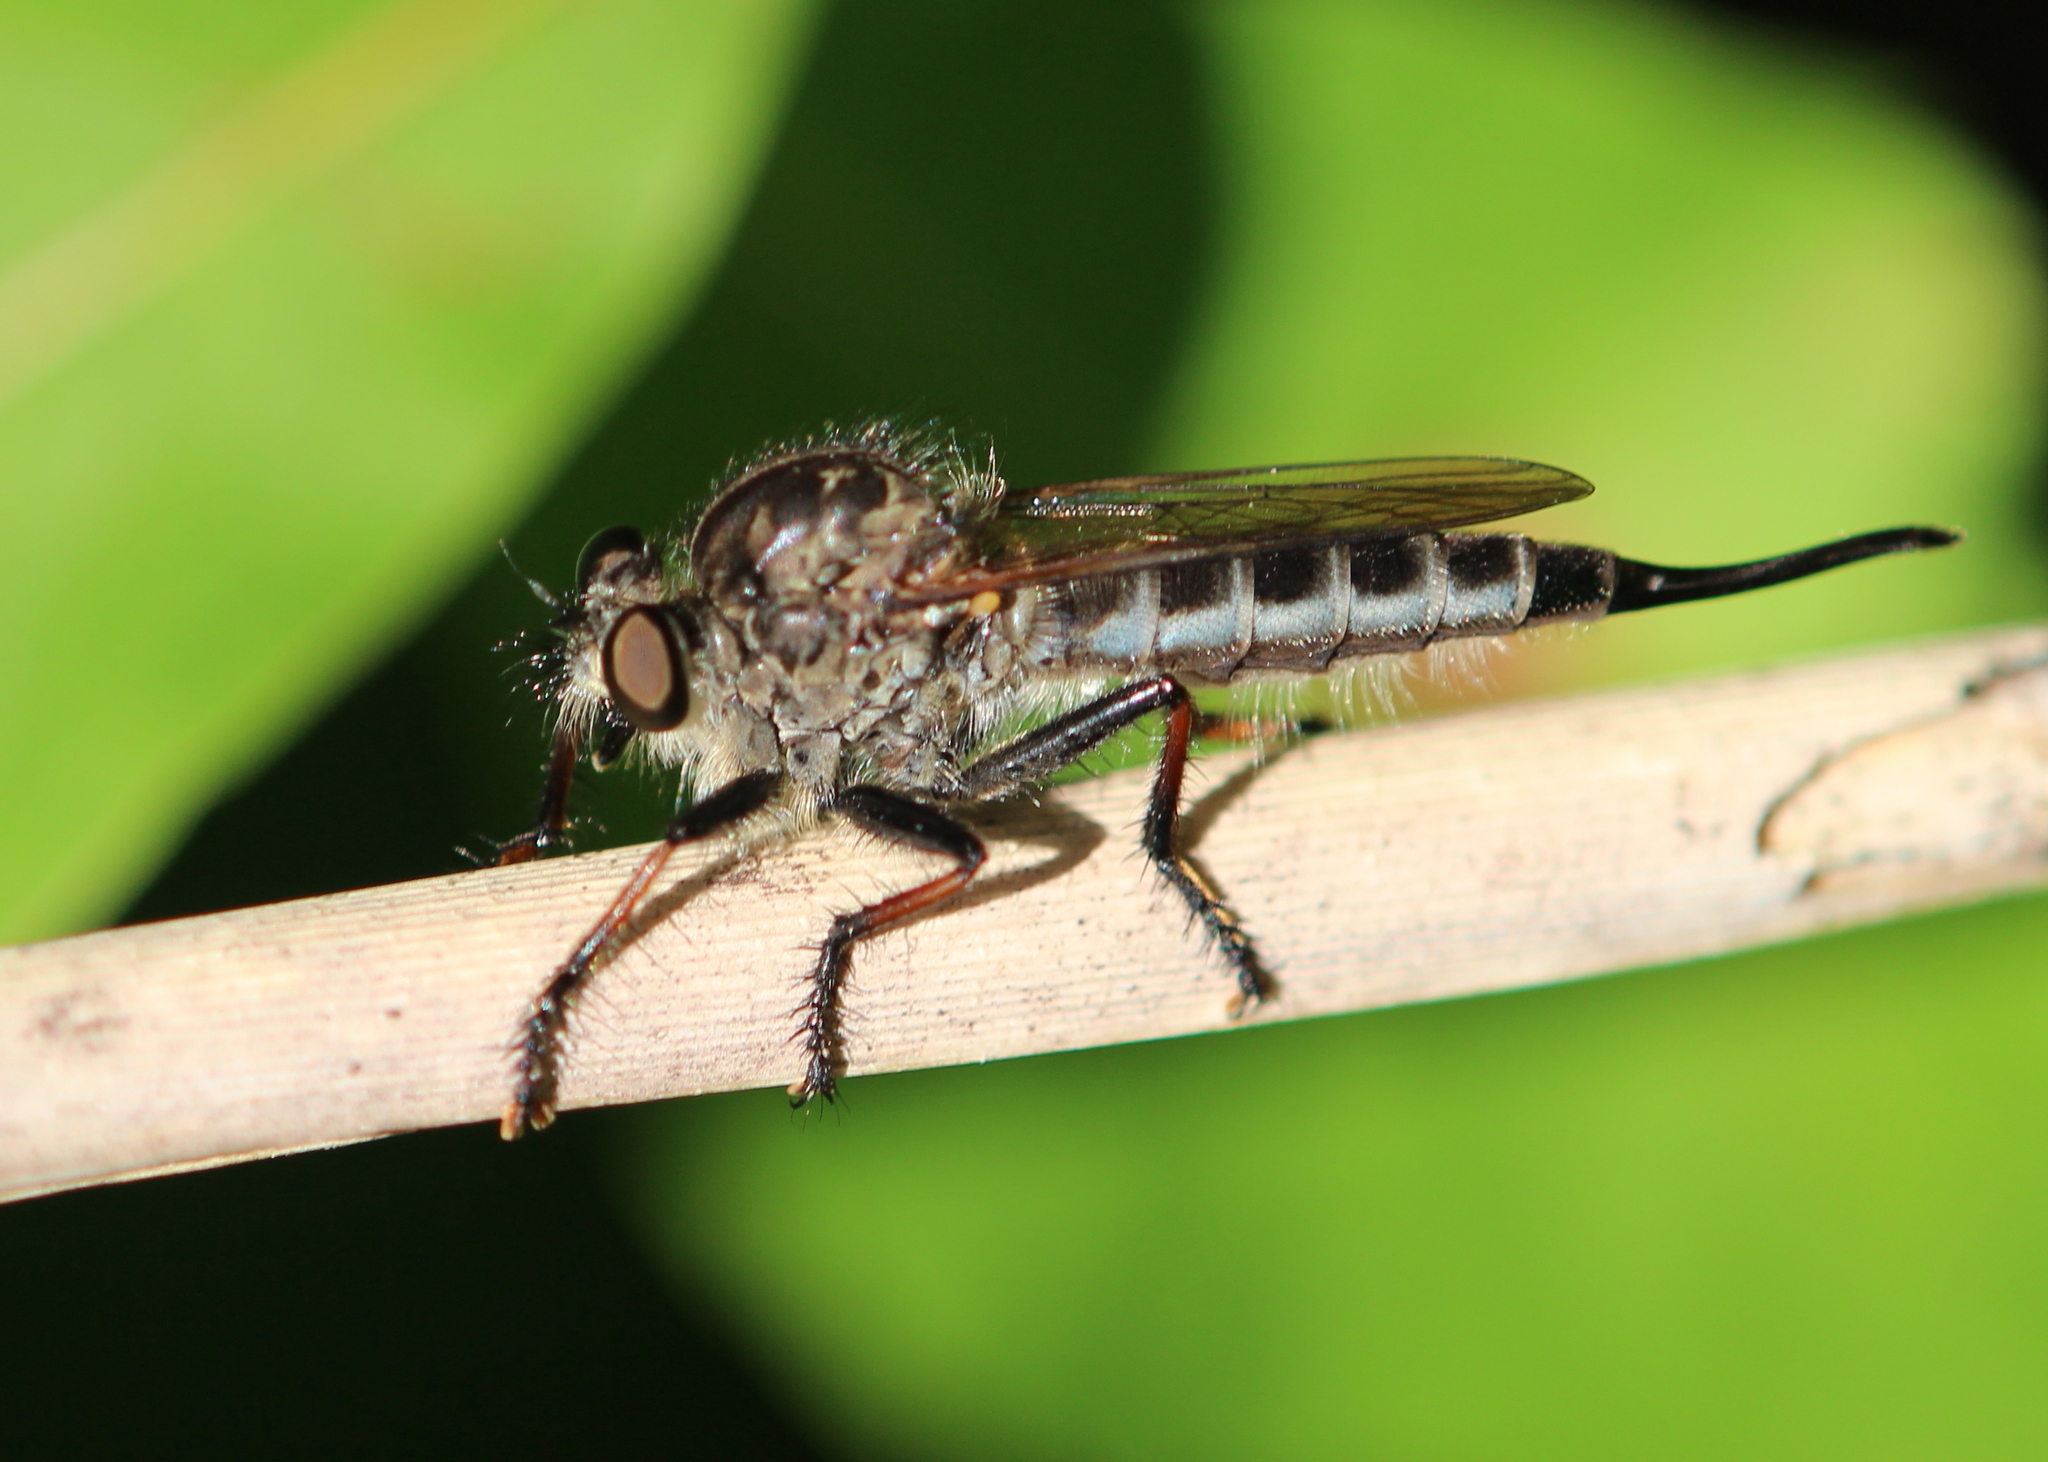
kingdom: Animalia
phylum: Arthropoda
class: Insecta
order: Diptera
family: Asilidae
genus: Efferia
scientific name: Efferia aestuans
